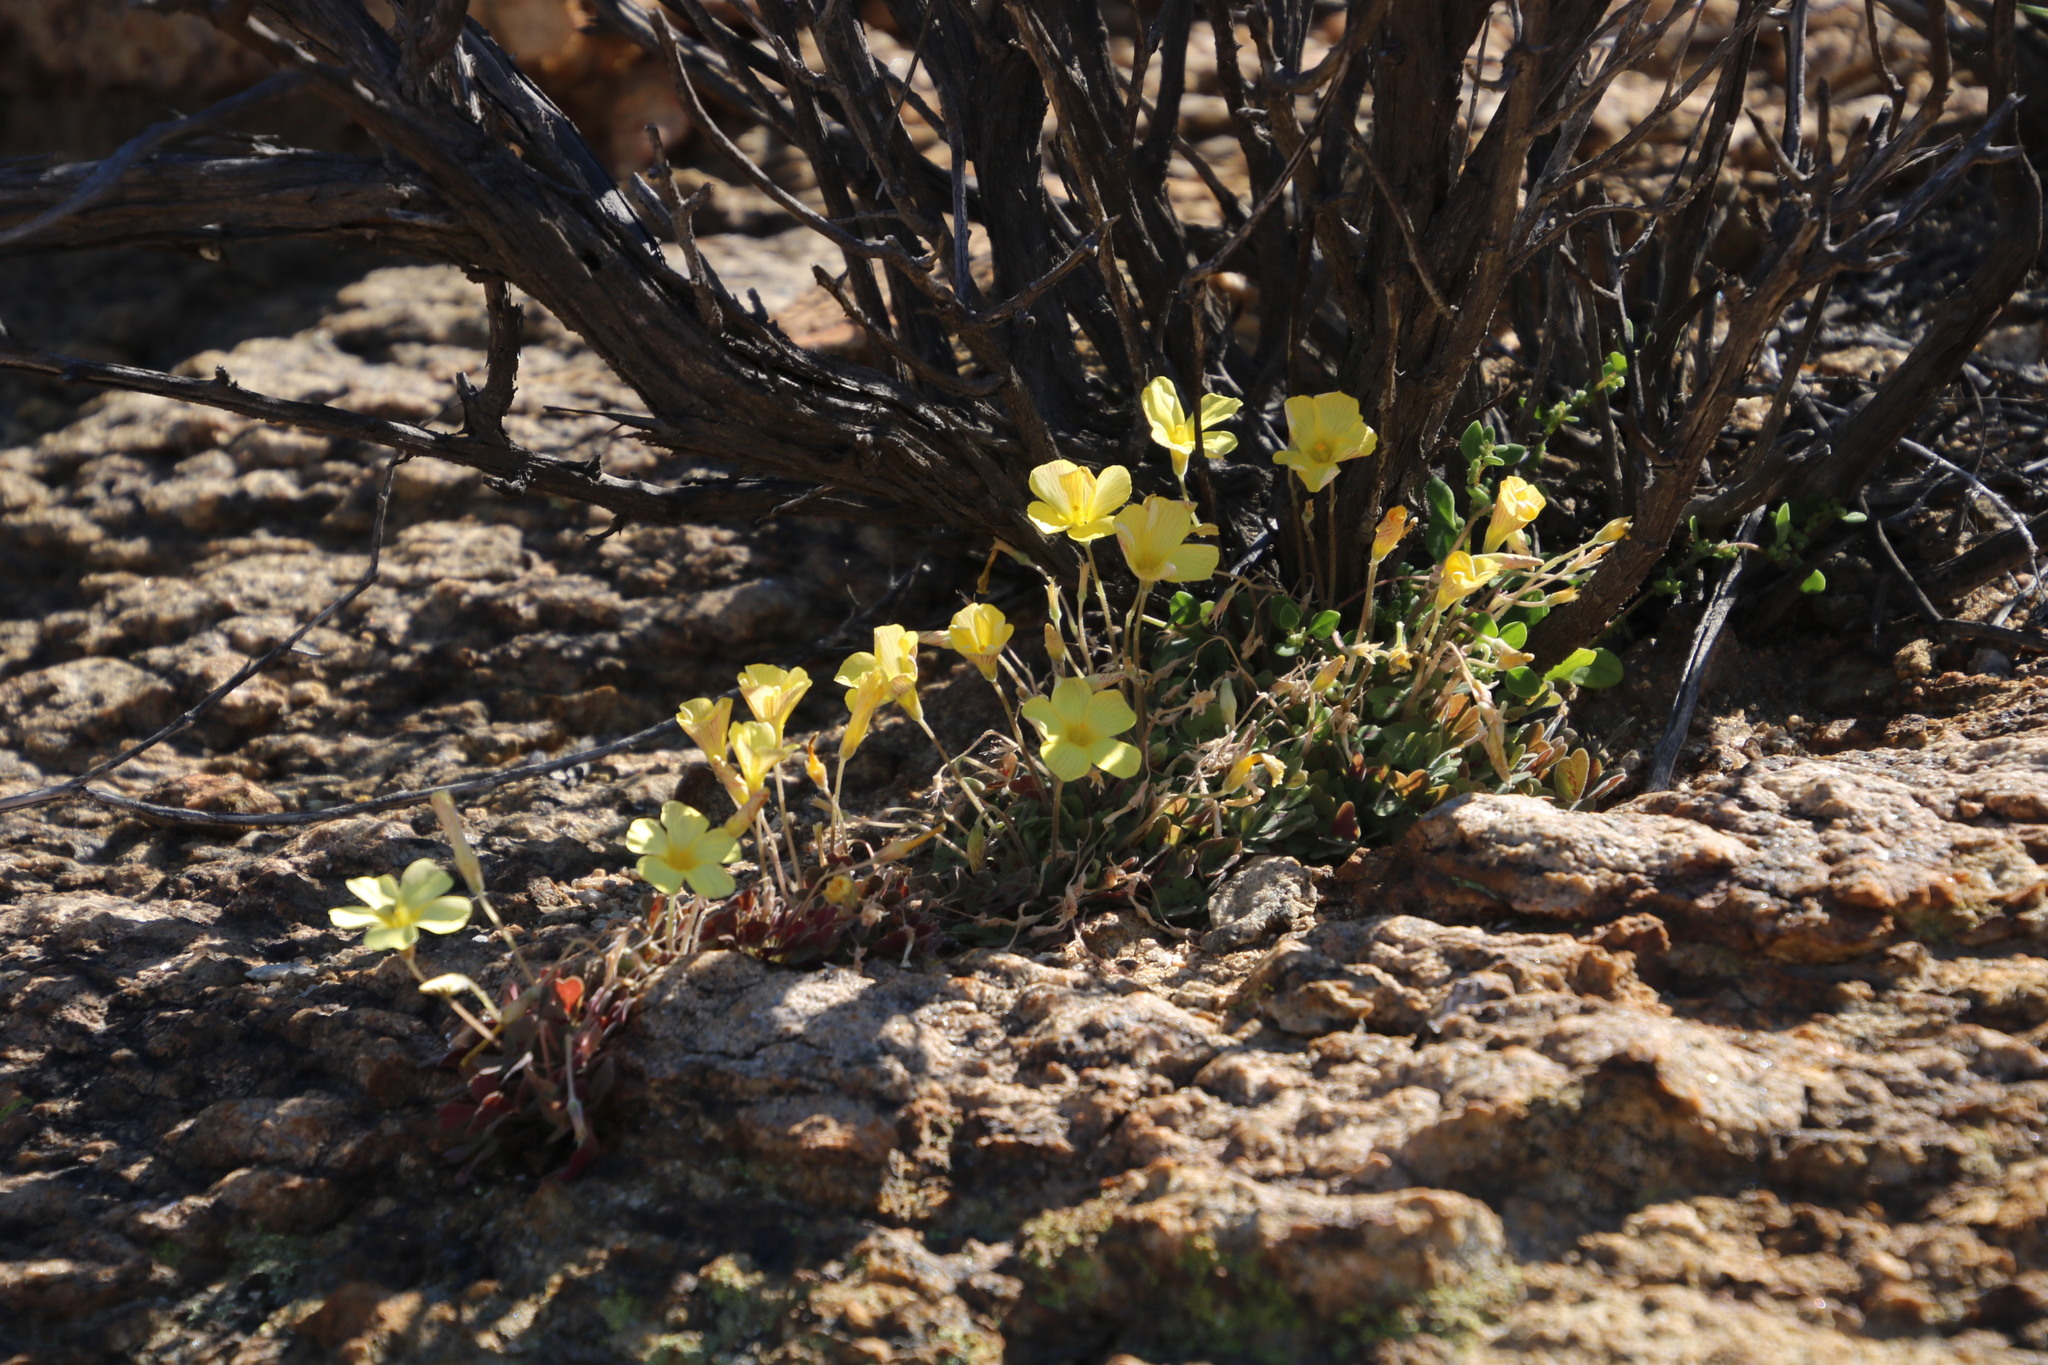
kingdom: Plantae
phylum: Tracheophyta
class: Magnoliopsida
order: Oxalidales
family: Oxalidaceae
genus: Oxalis
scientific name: Oxalis obtusa
